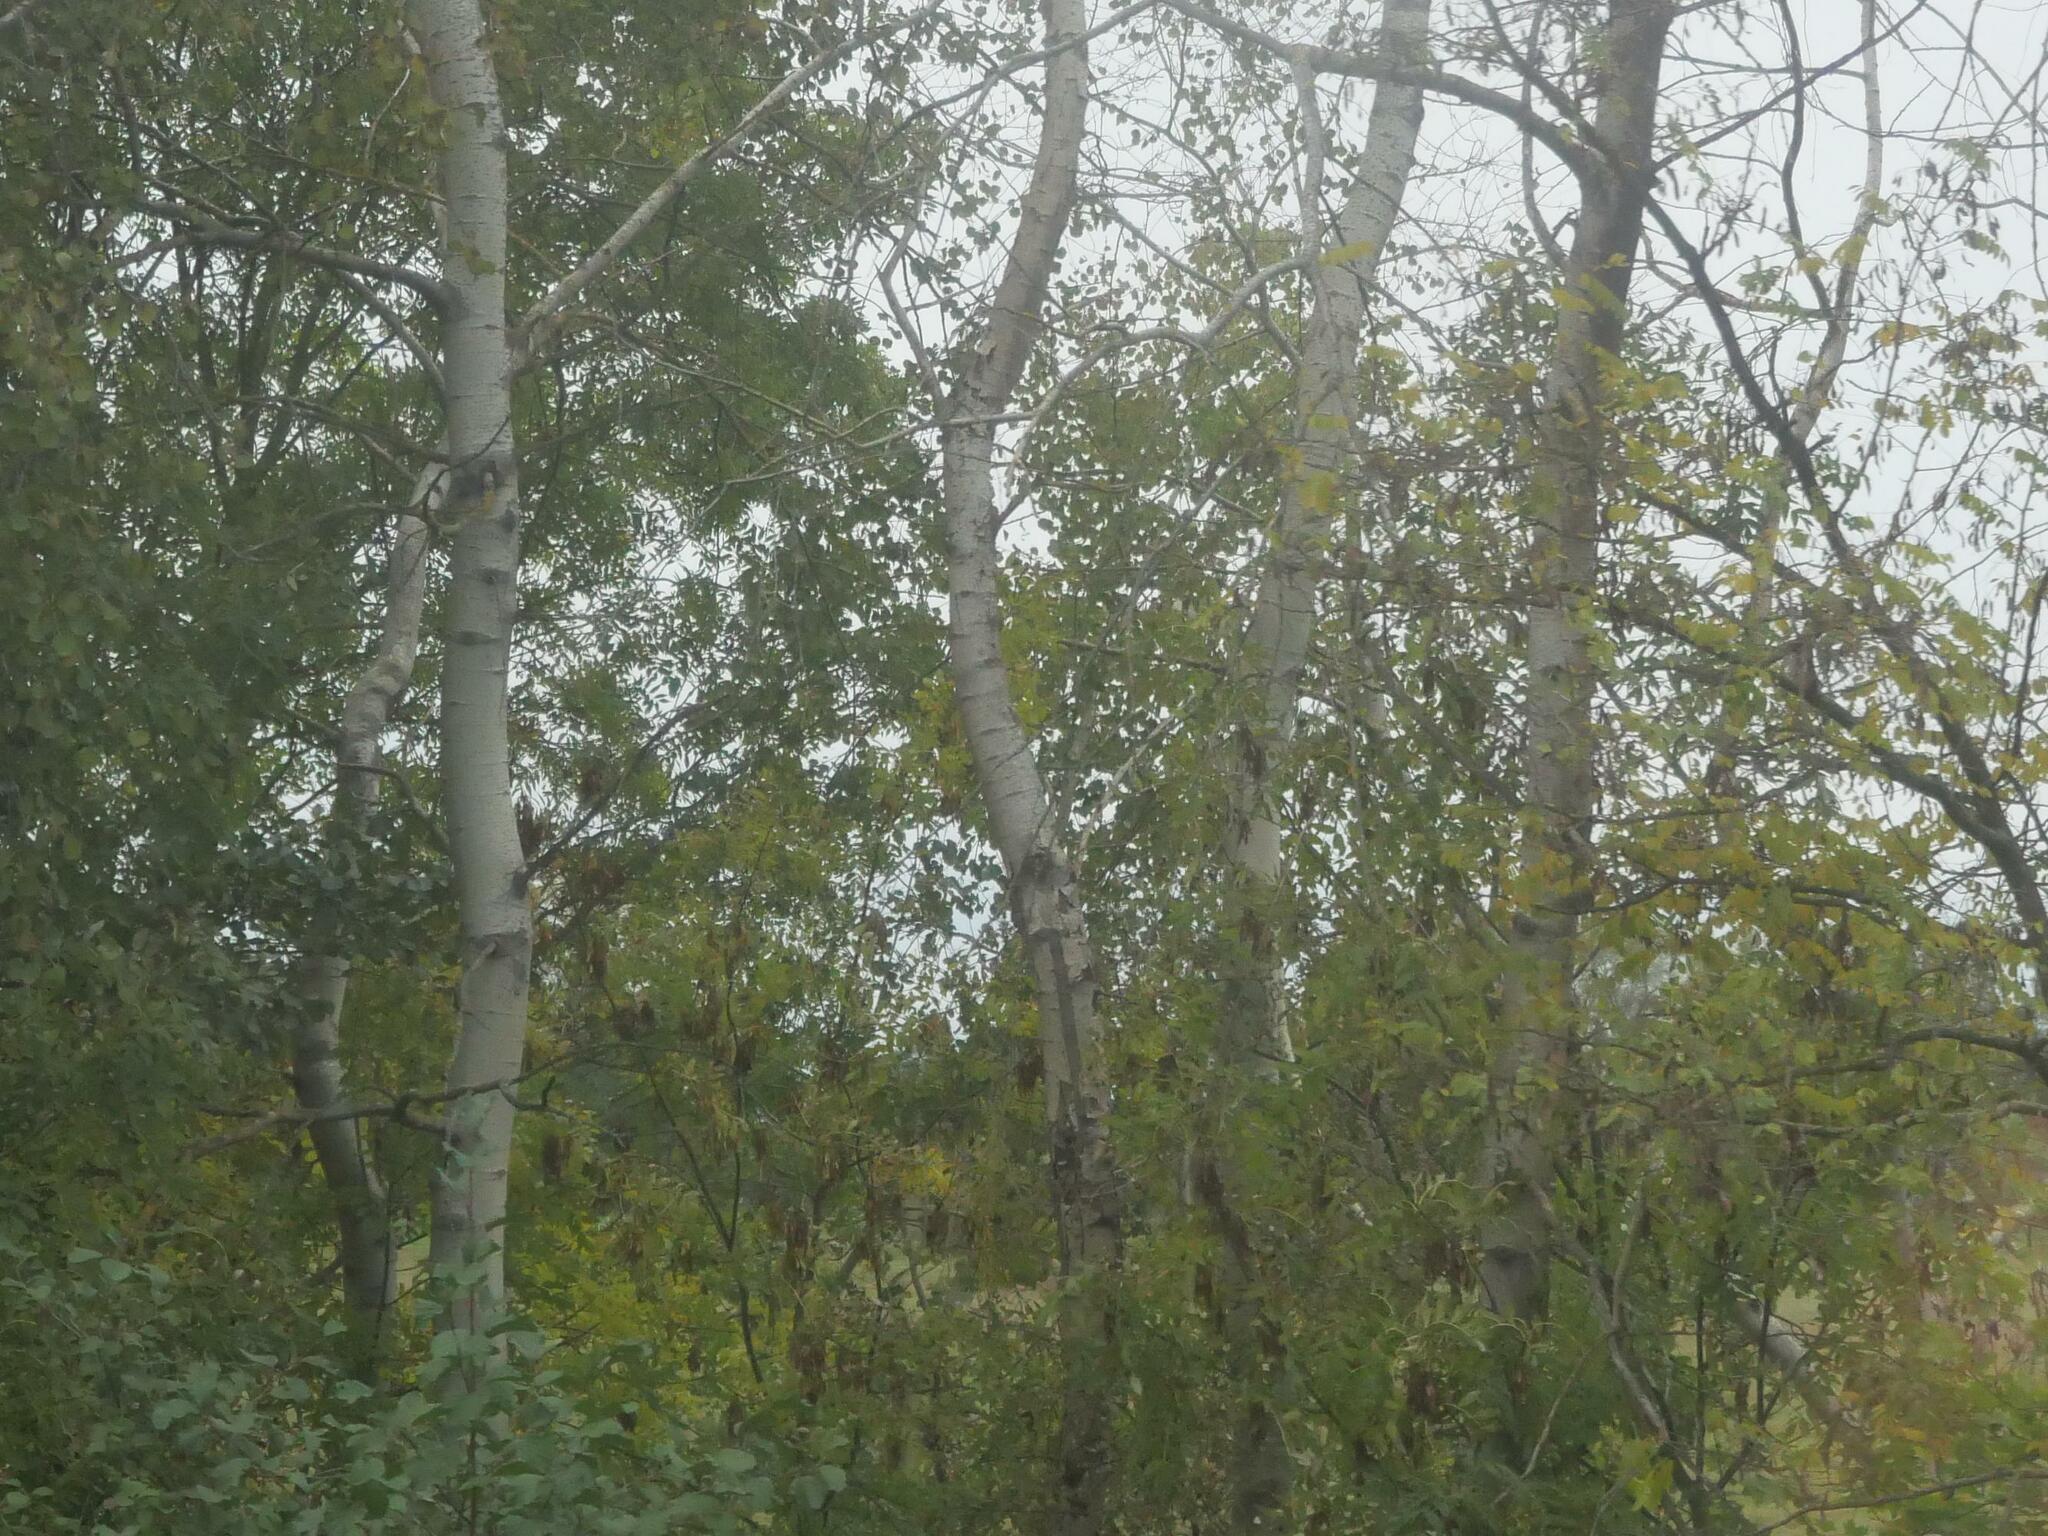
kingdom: Plantae
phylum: Tracheophyta
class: Magnoliopsida
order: Malpighiales
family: Salicaceae
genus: Populus
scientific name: Populus tremula
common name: European aspen
